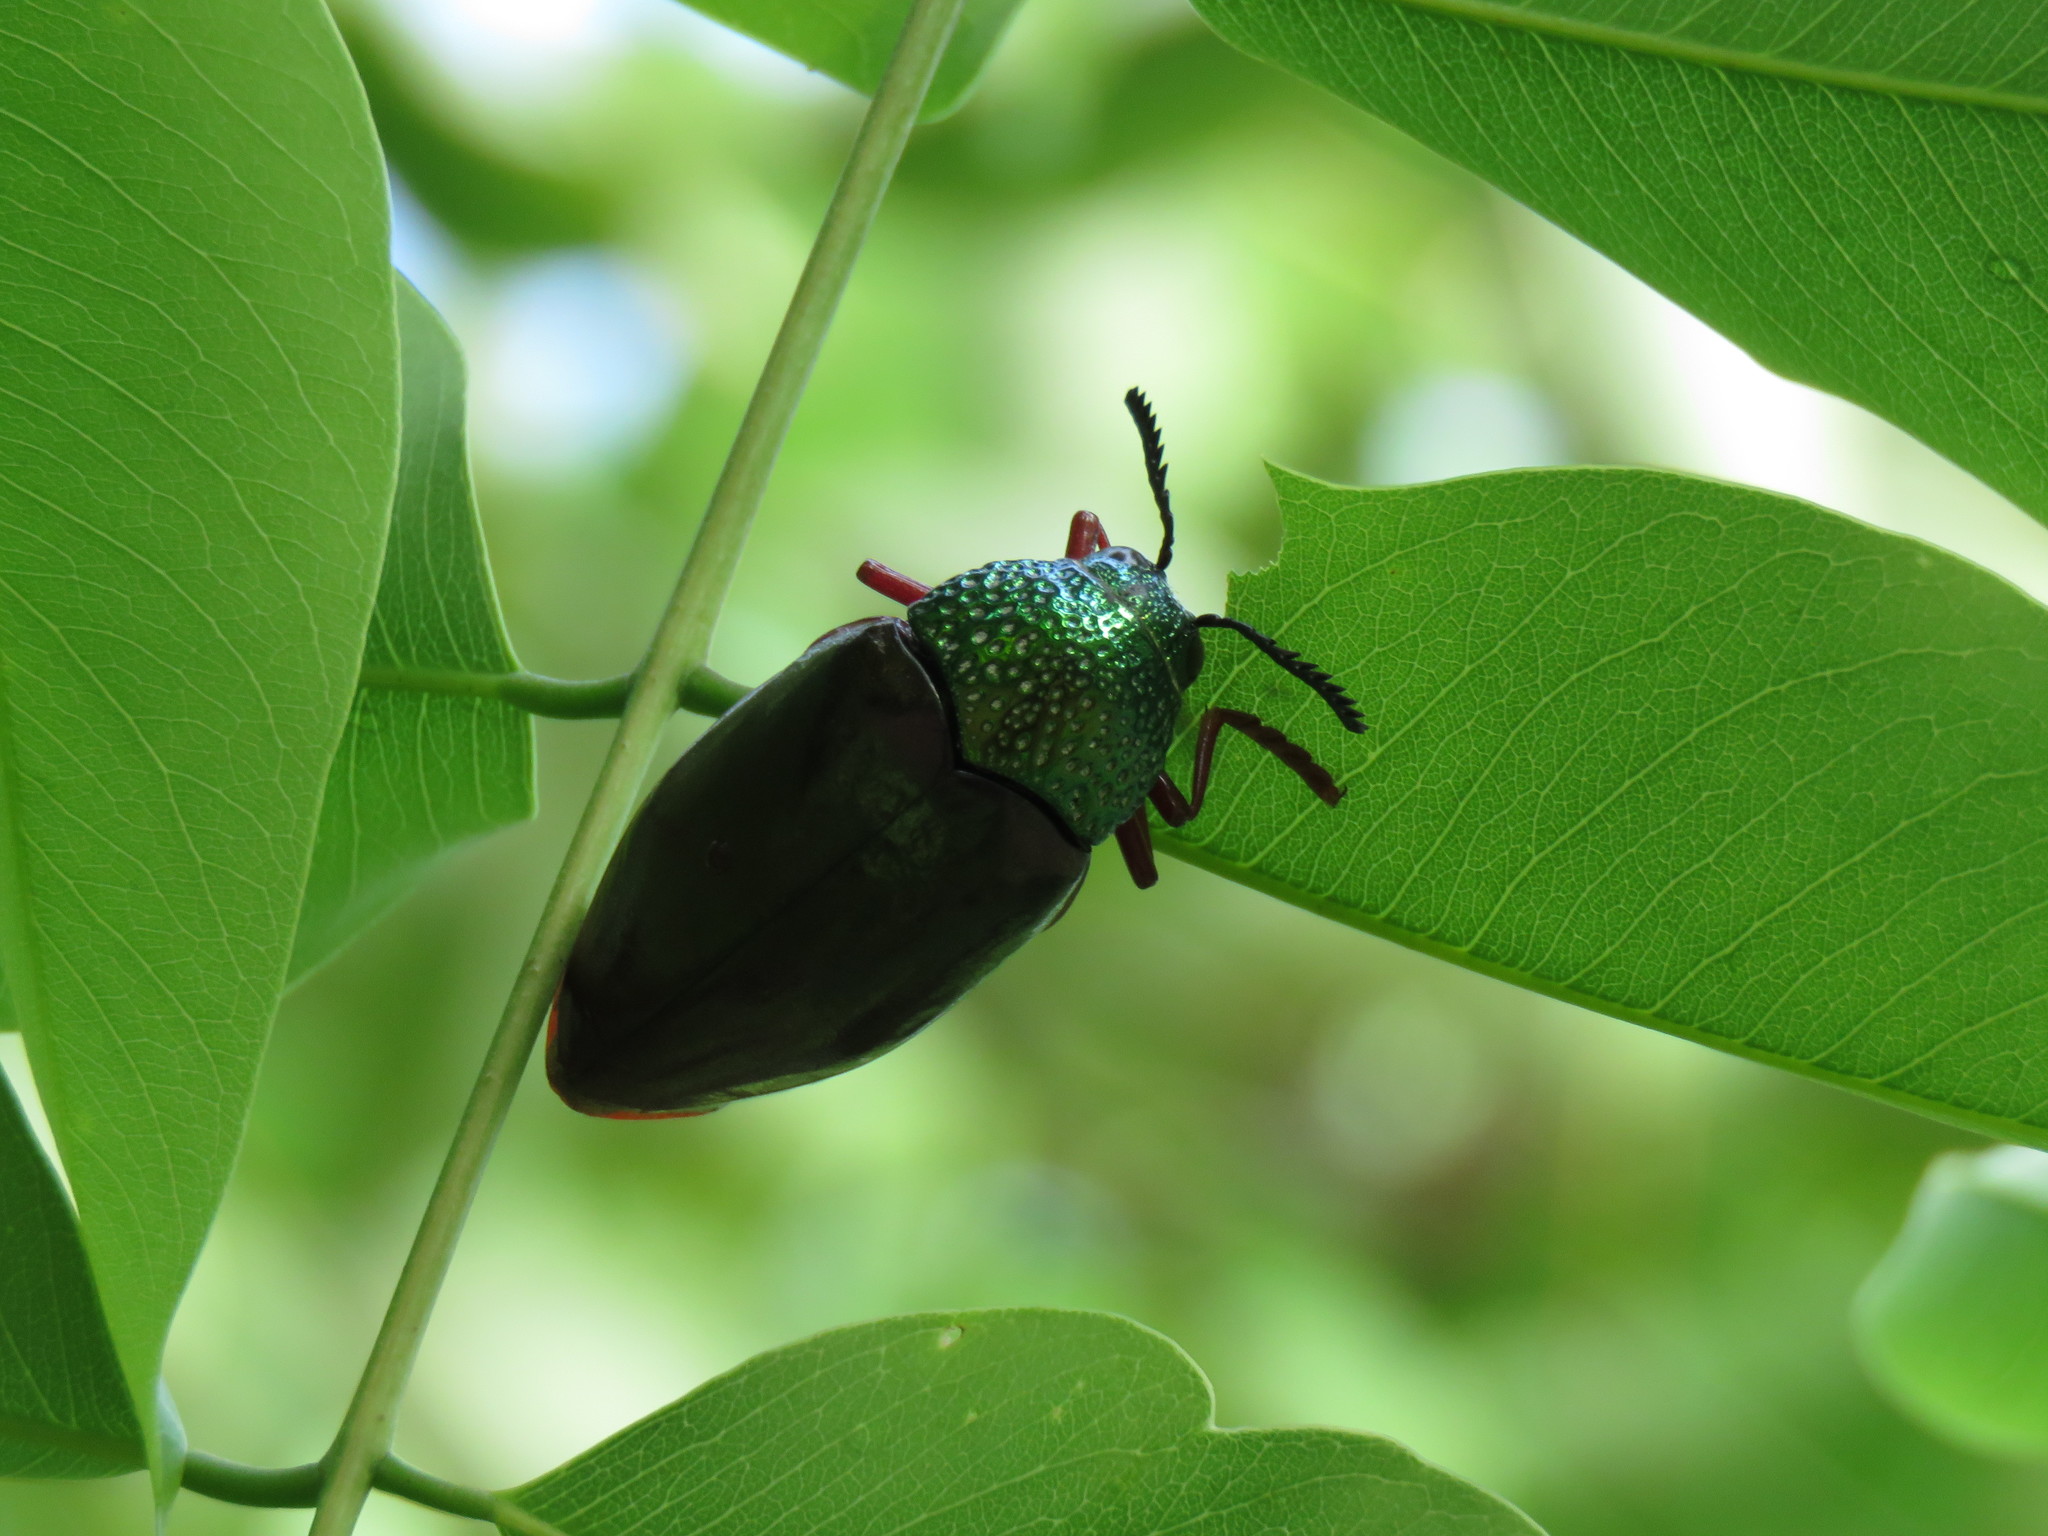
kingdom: Animalia
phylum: Arthropoda
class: Insecta
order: Coleoptera
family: Buprestidae
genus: Sternocera
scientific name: Sternocera chrysis
